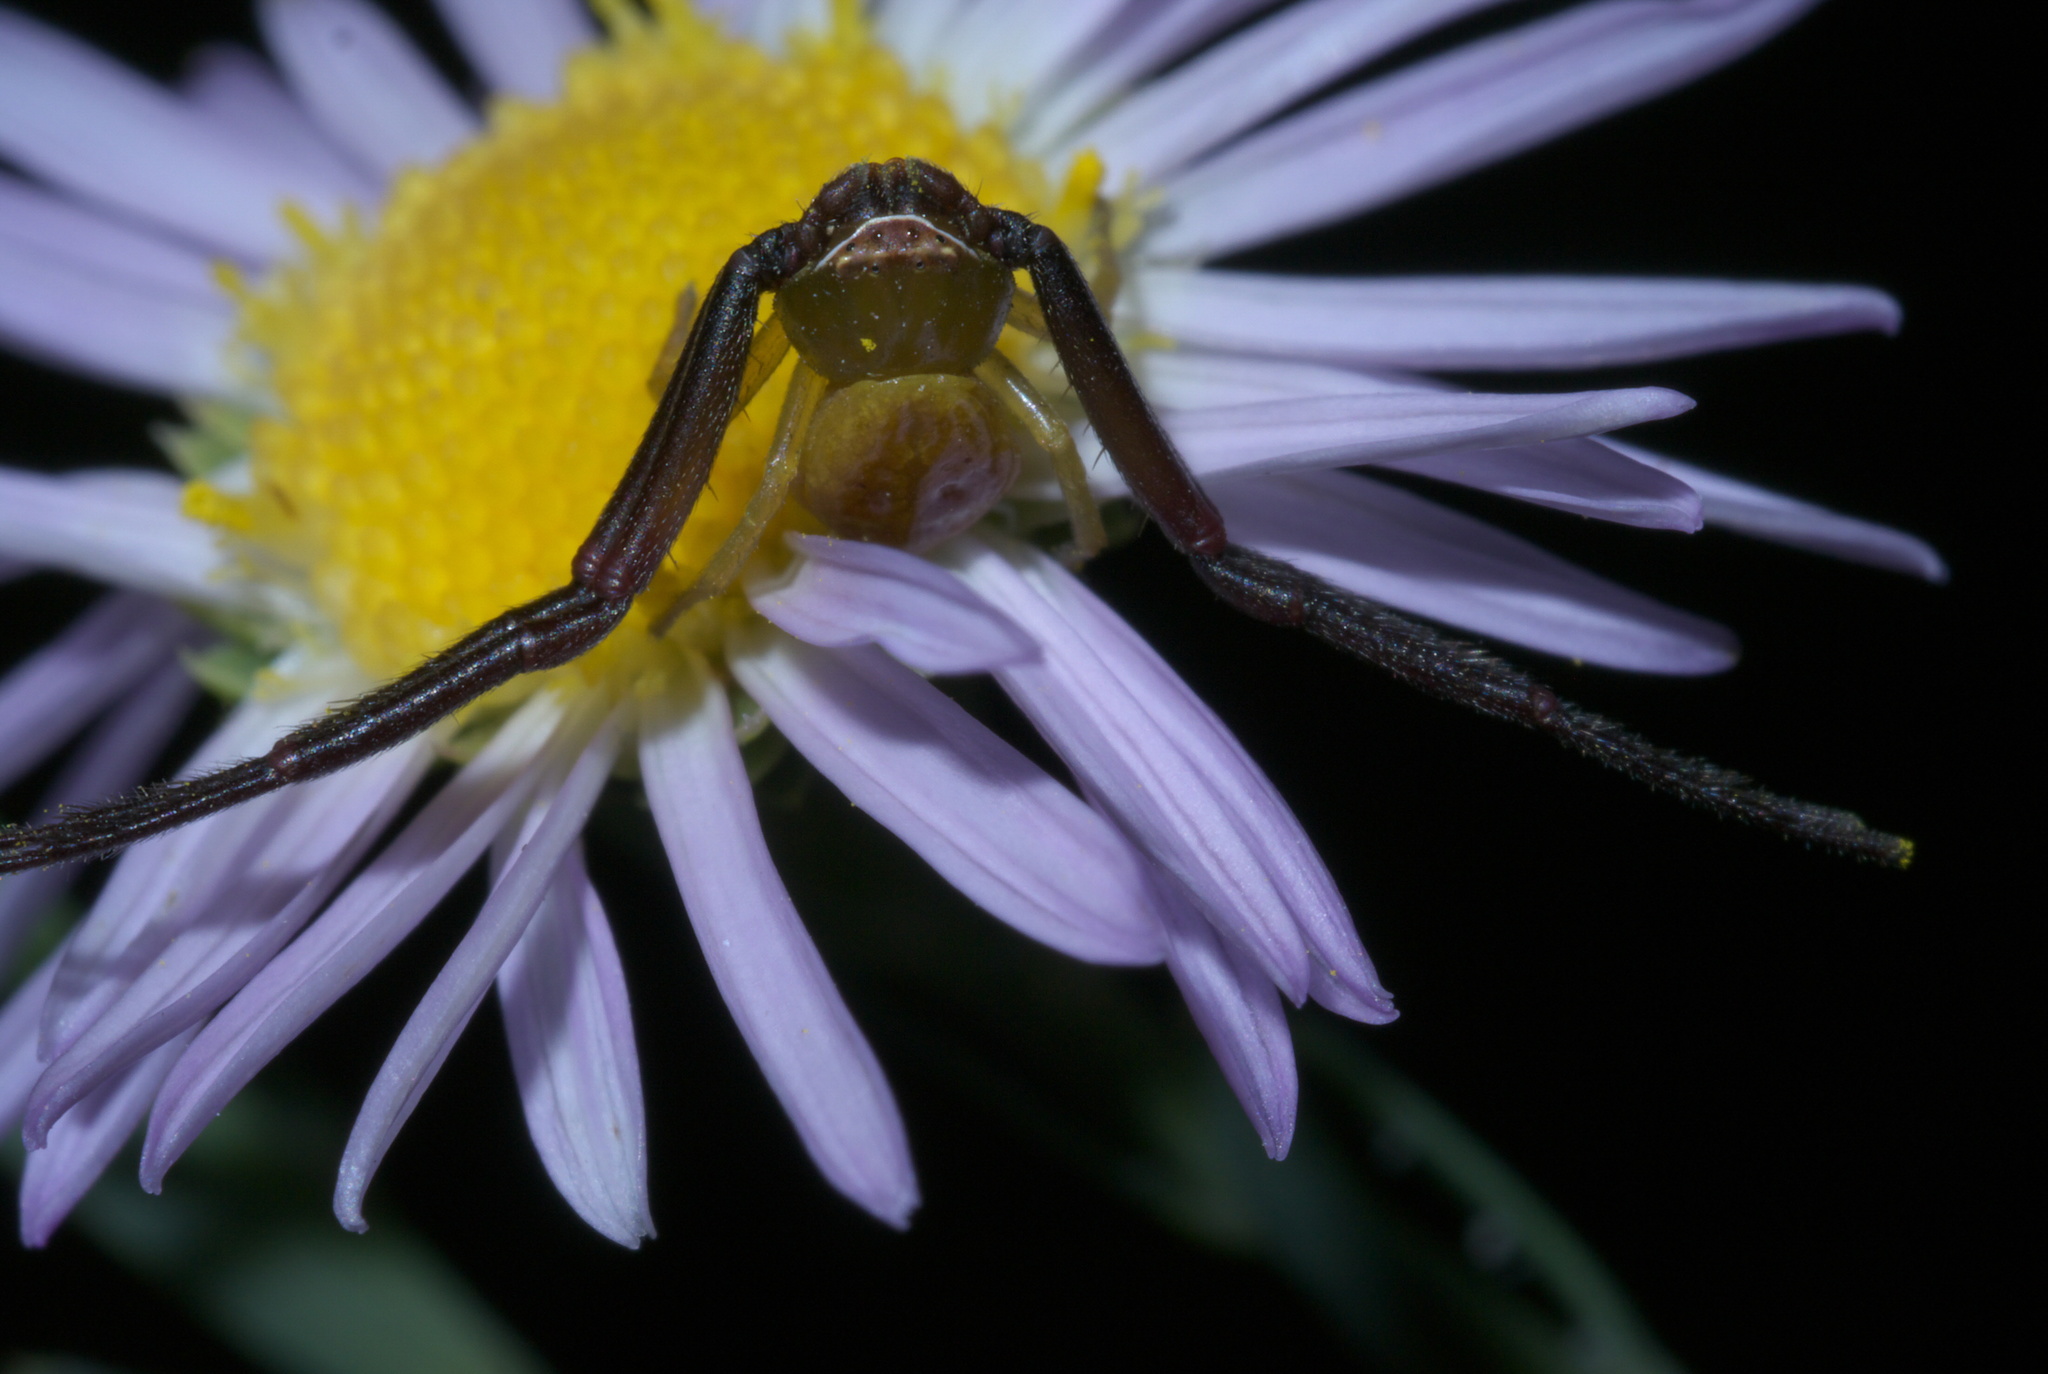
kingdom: Animalia
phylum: Arthropoda
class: Arachnida
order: Araneae
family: Thomisidae
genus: Misumenoides
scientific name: Misumenoides formosipes
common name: White-banded crab spider
